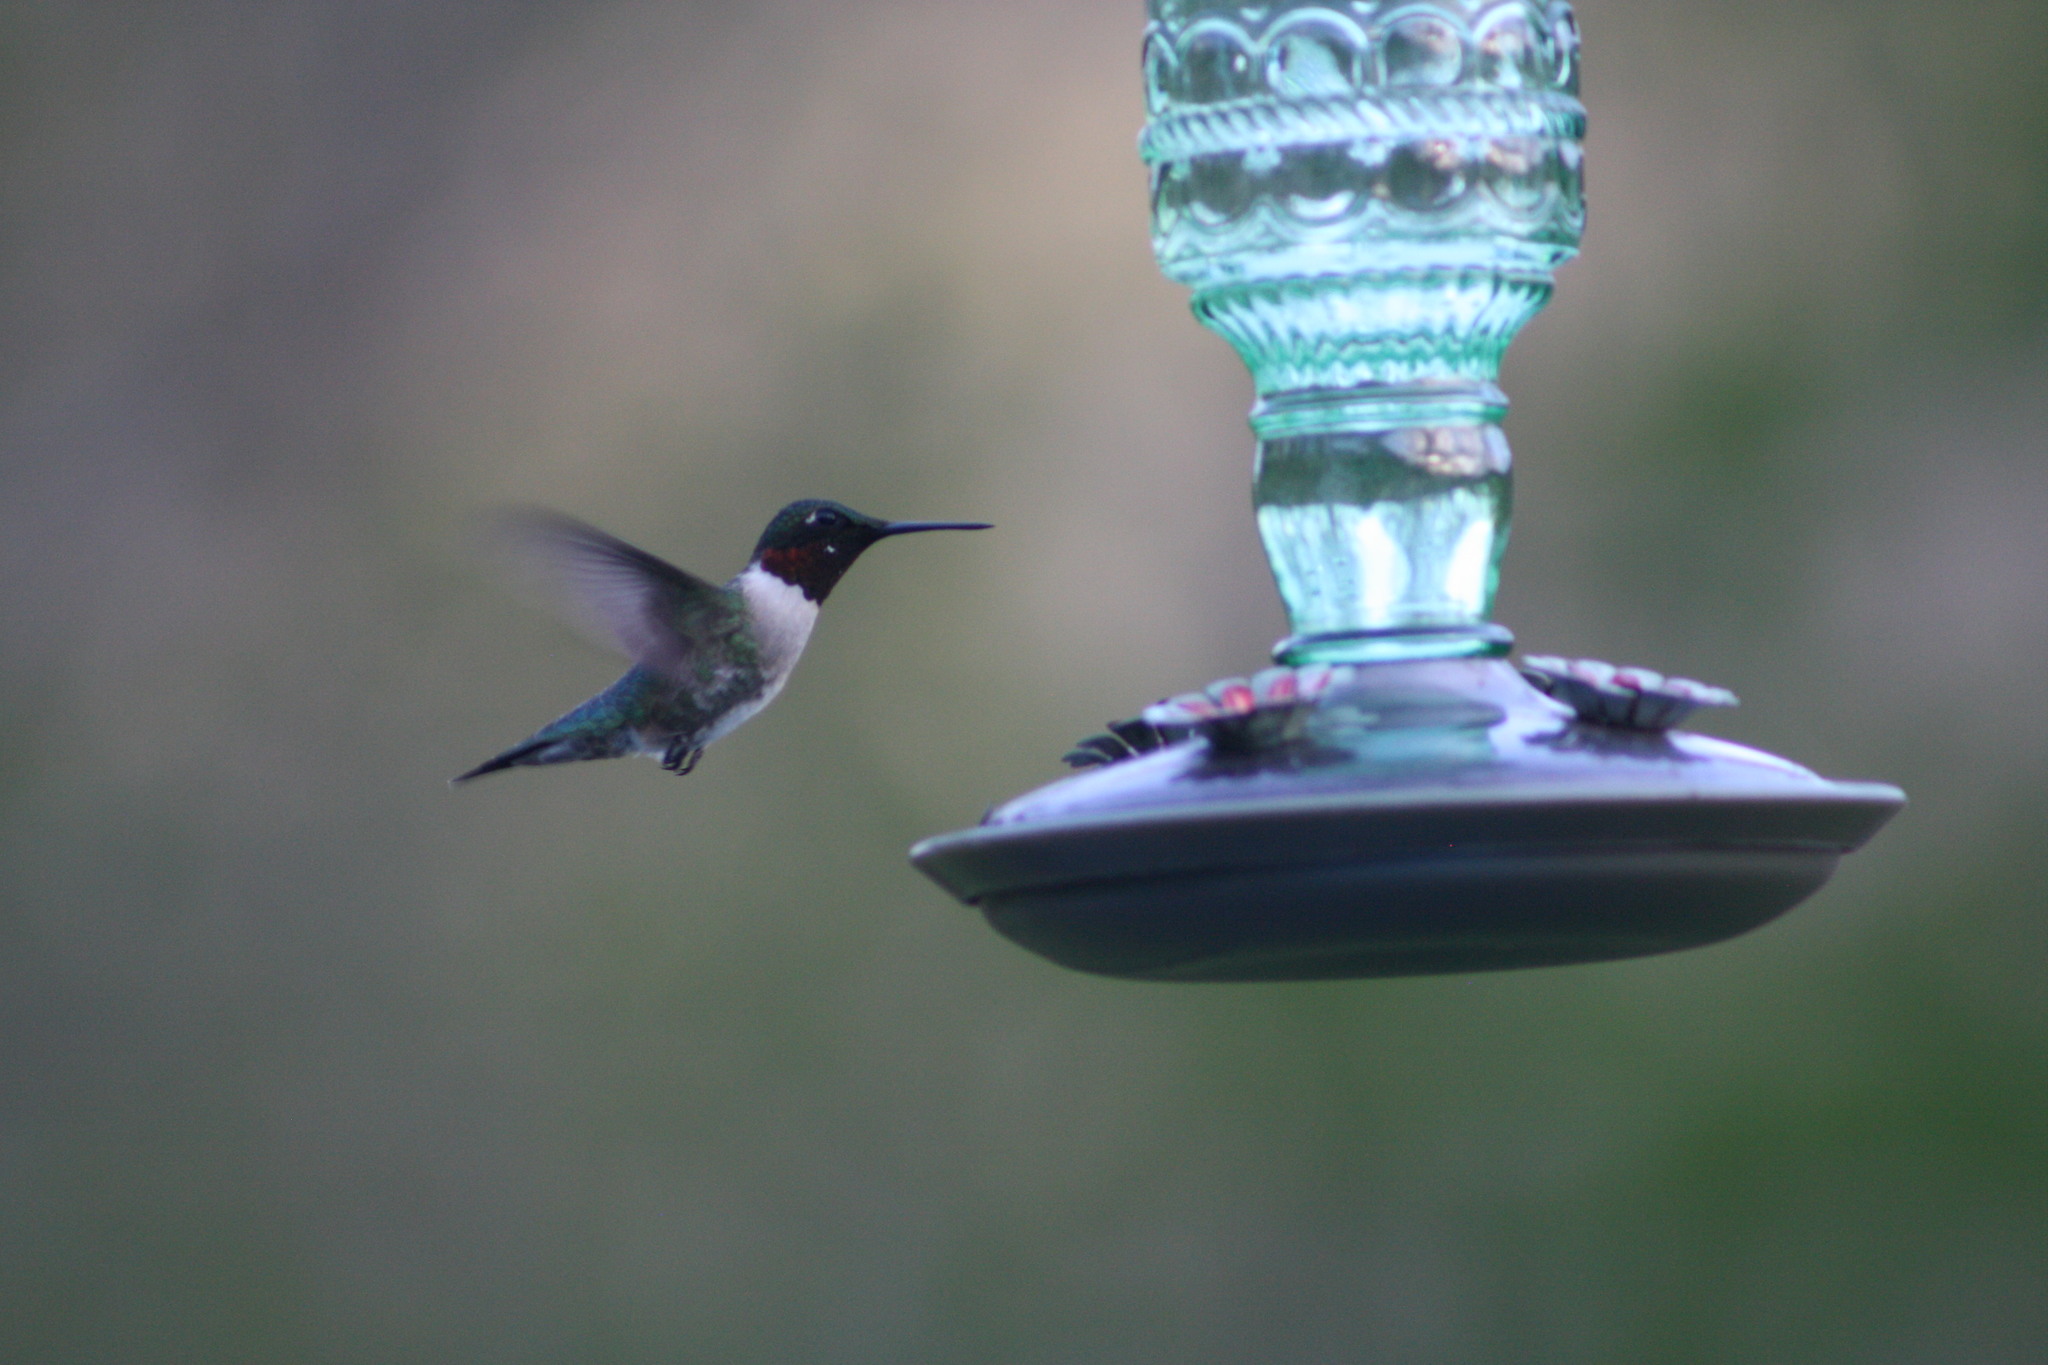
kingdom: Animalia
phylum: Chordata
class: Aves
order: Apodiformes
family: Trochilidae
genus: Archilochus
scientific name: Archilochus colubris
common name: Ruby-throated hummingbird
